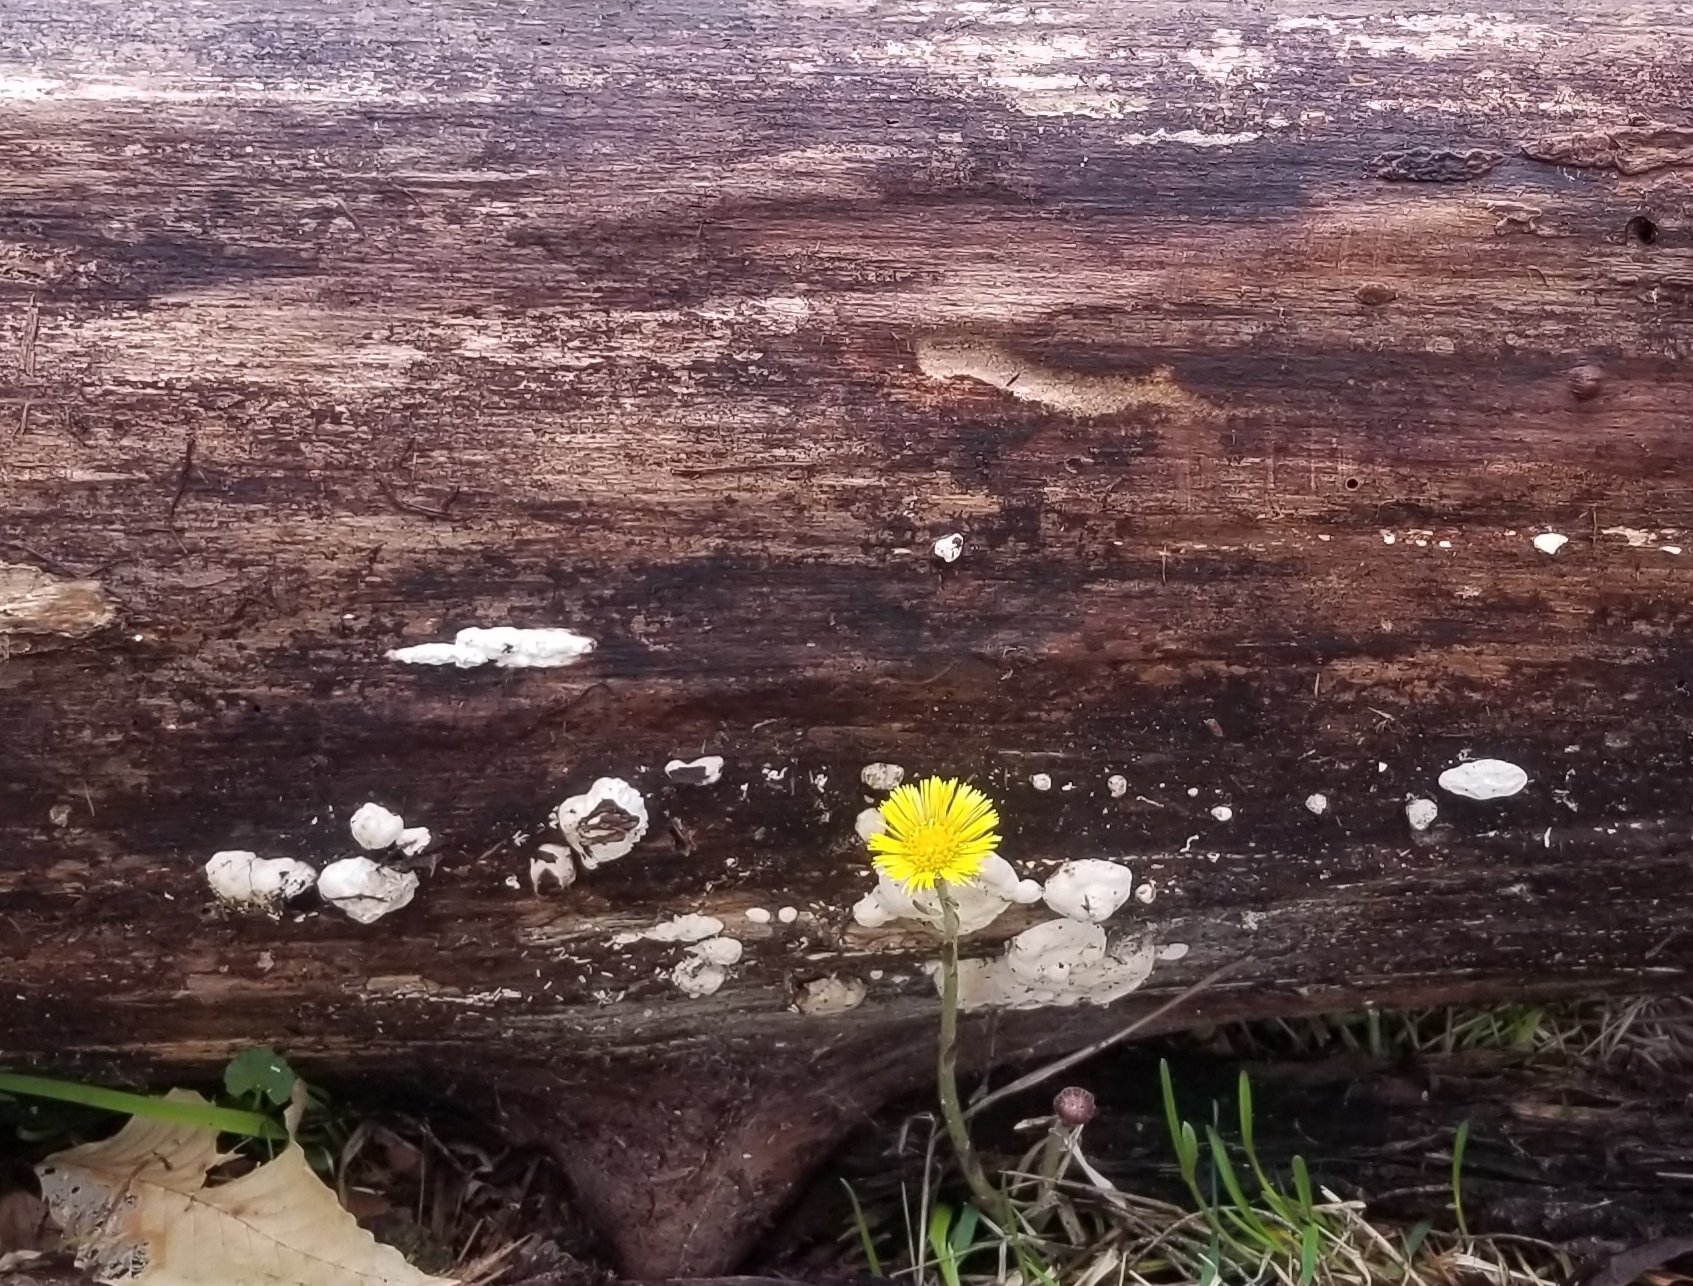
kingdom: Plantae
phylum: Tracheophyta
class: Magnoliopsida
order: Asterales
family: Asteraceae
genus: Tussilago
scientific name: Tussilago farfara
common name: Coltsfoot
